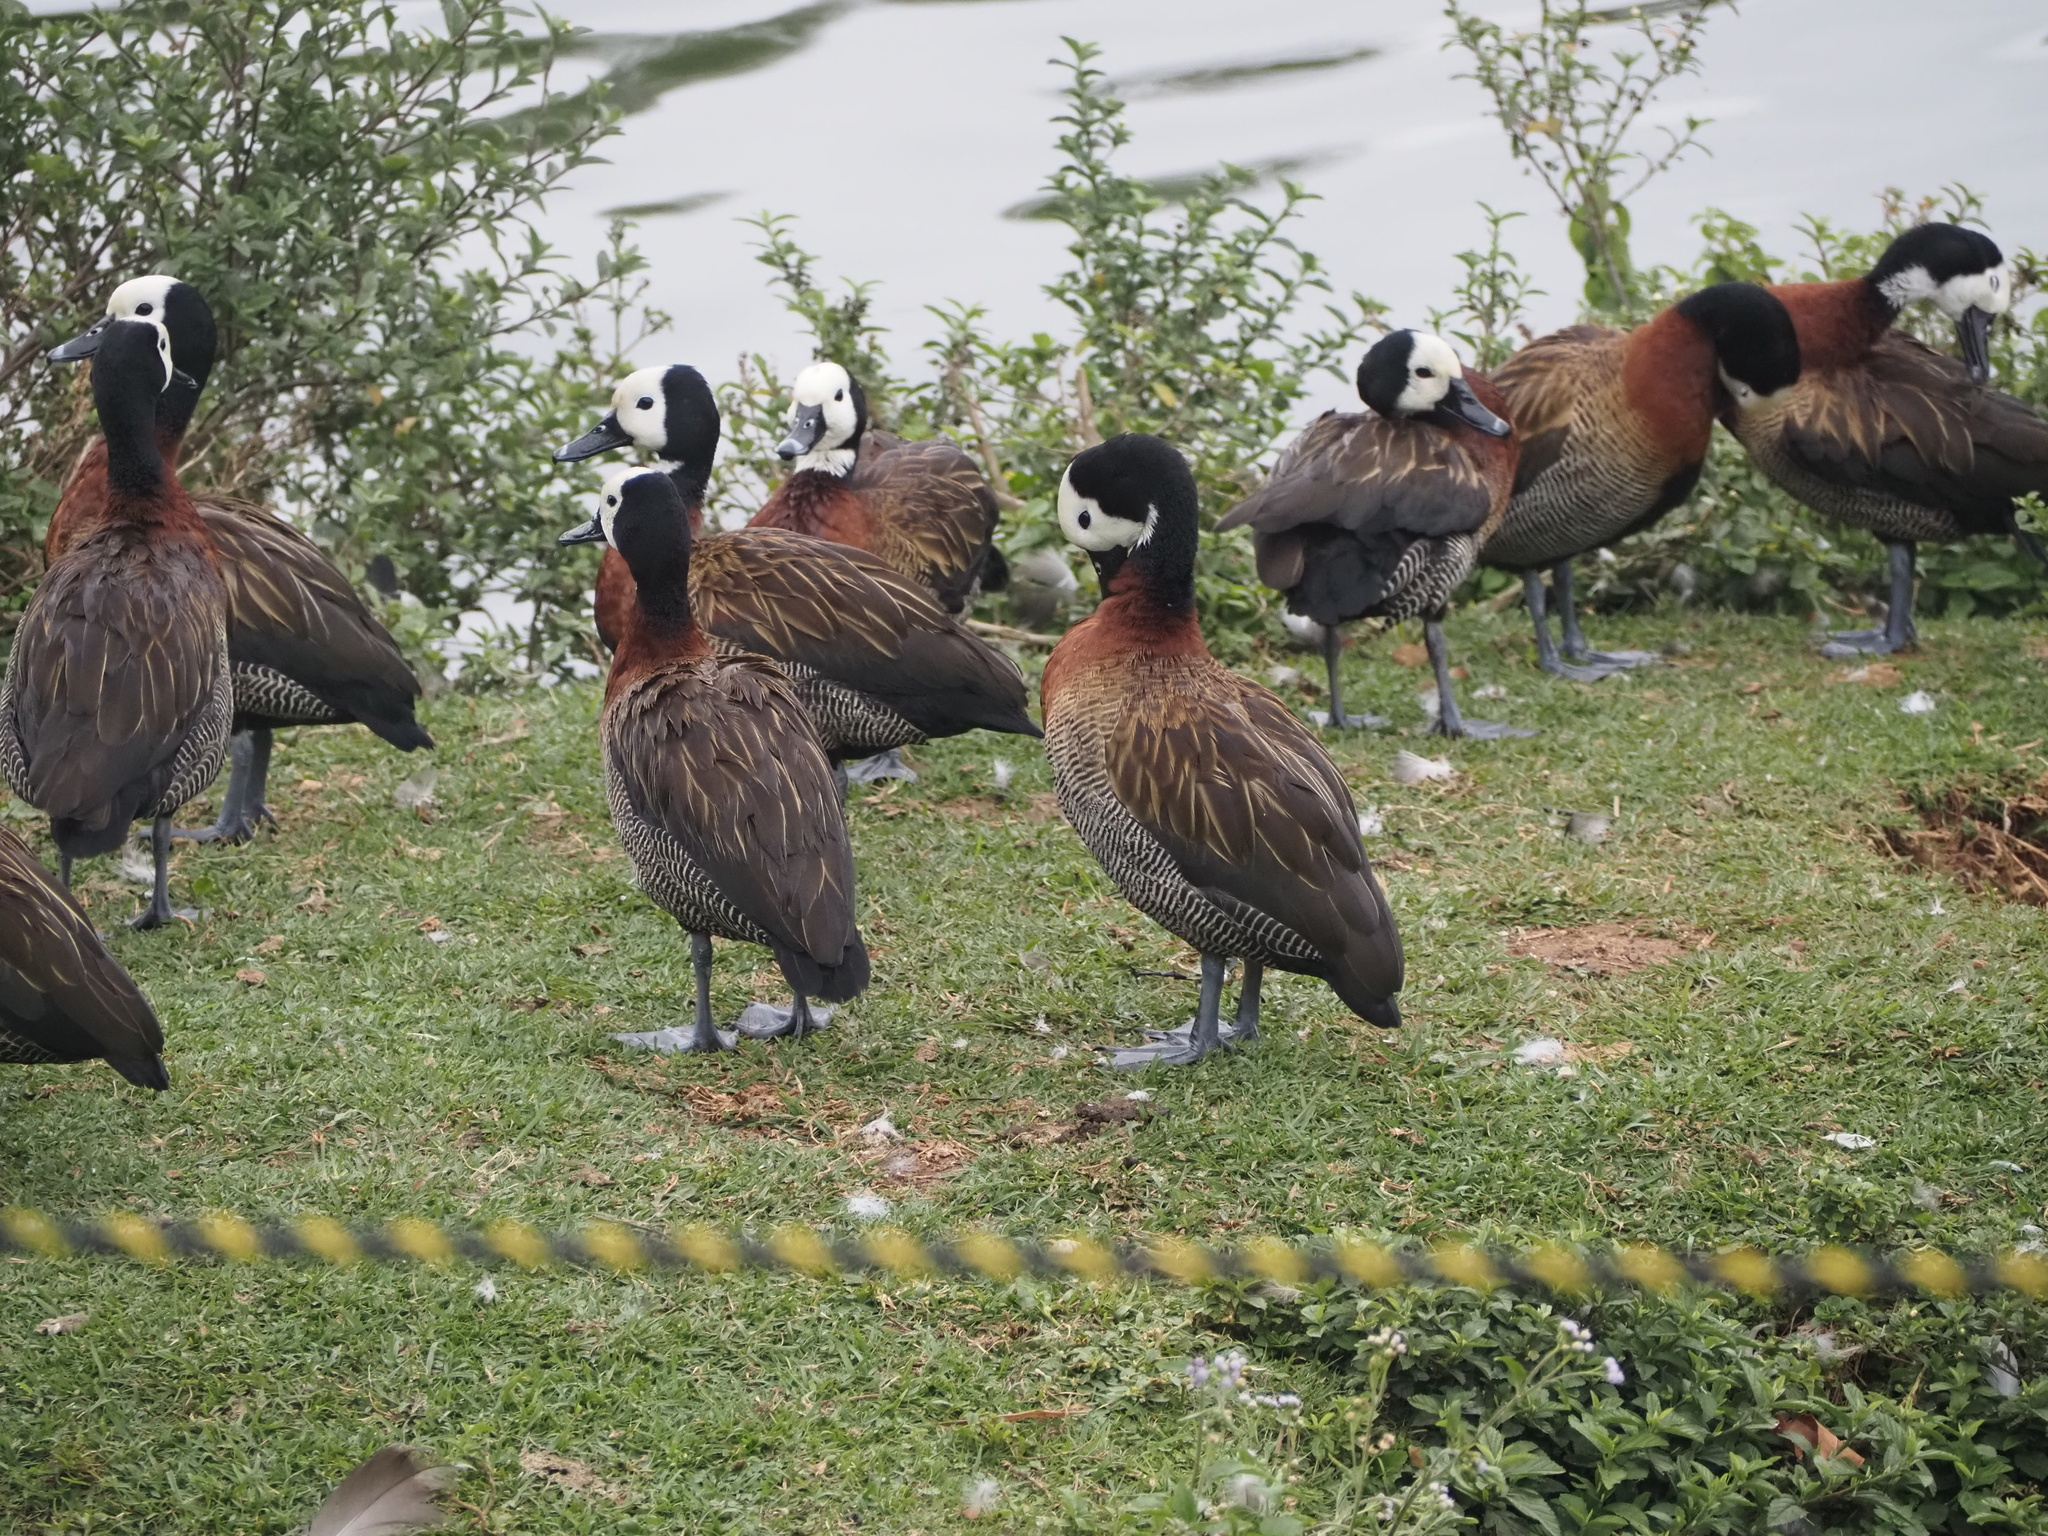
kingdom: Animalia
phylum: Chordata
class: Aves
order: Anseriformes
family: Anatidae
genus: Dendrocygna
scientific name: Dendrocygna viduata
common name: White-faced whistling duck
